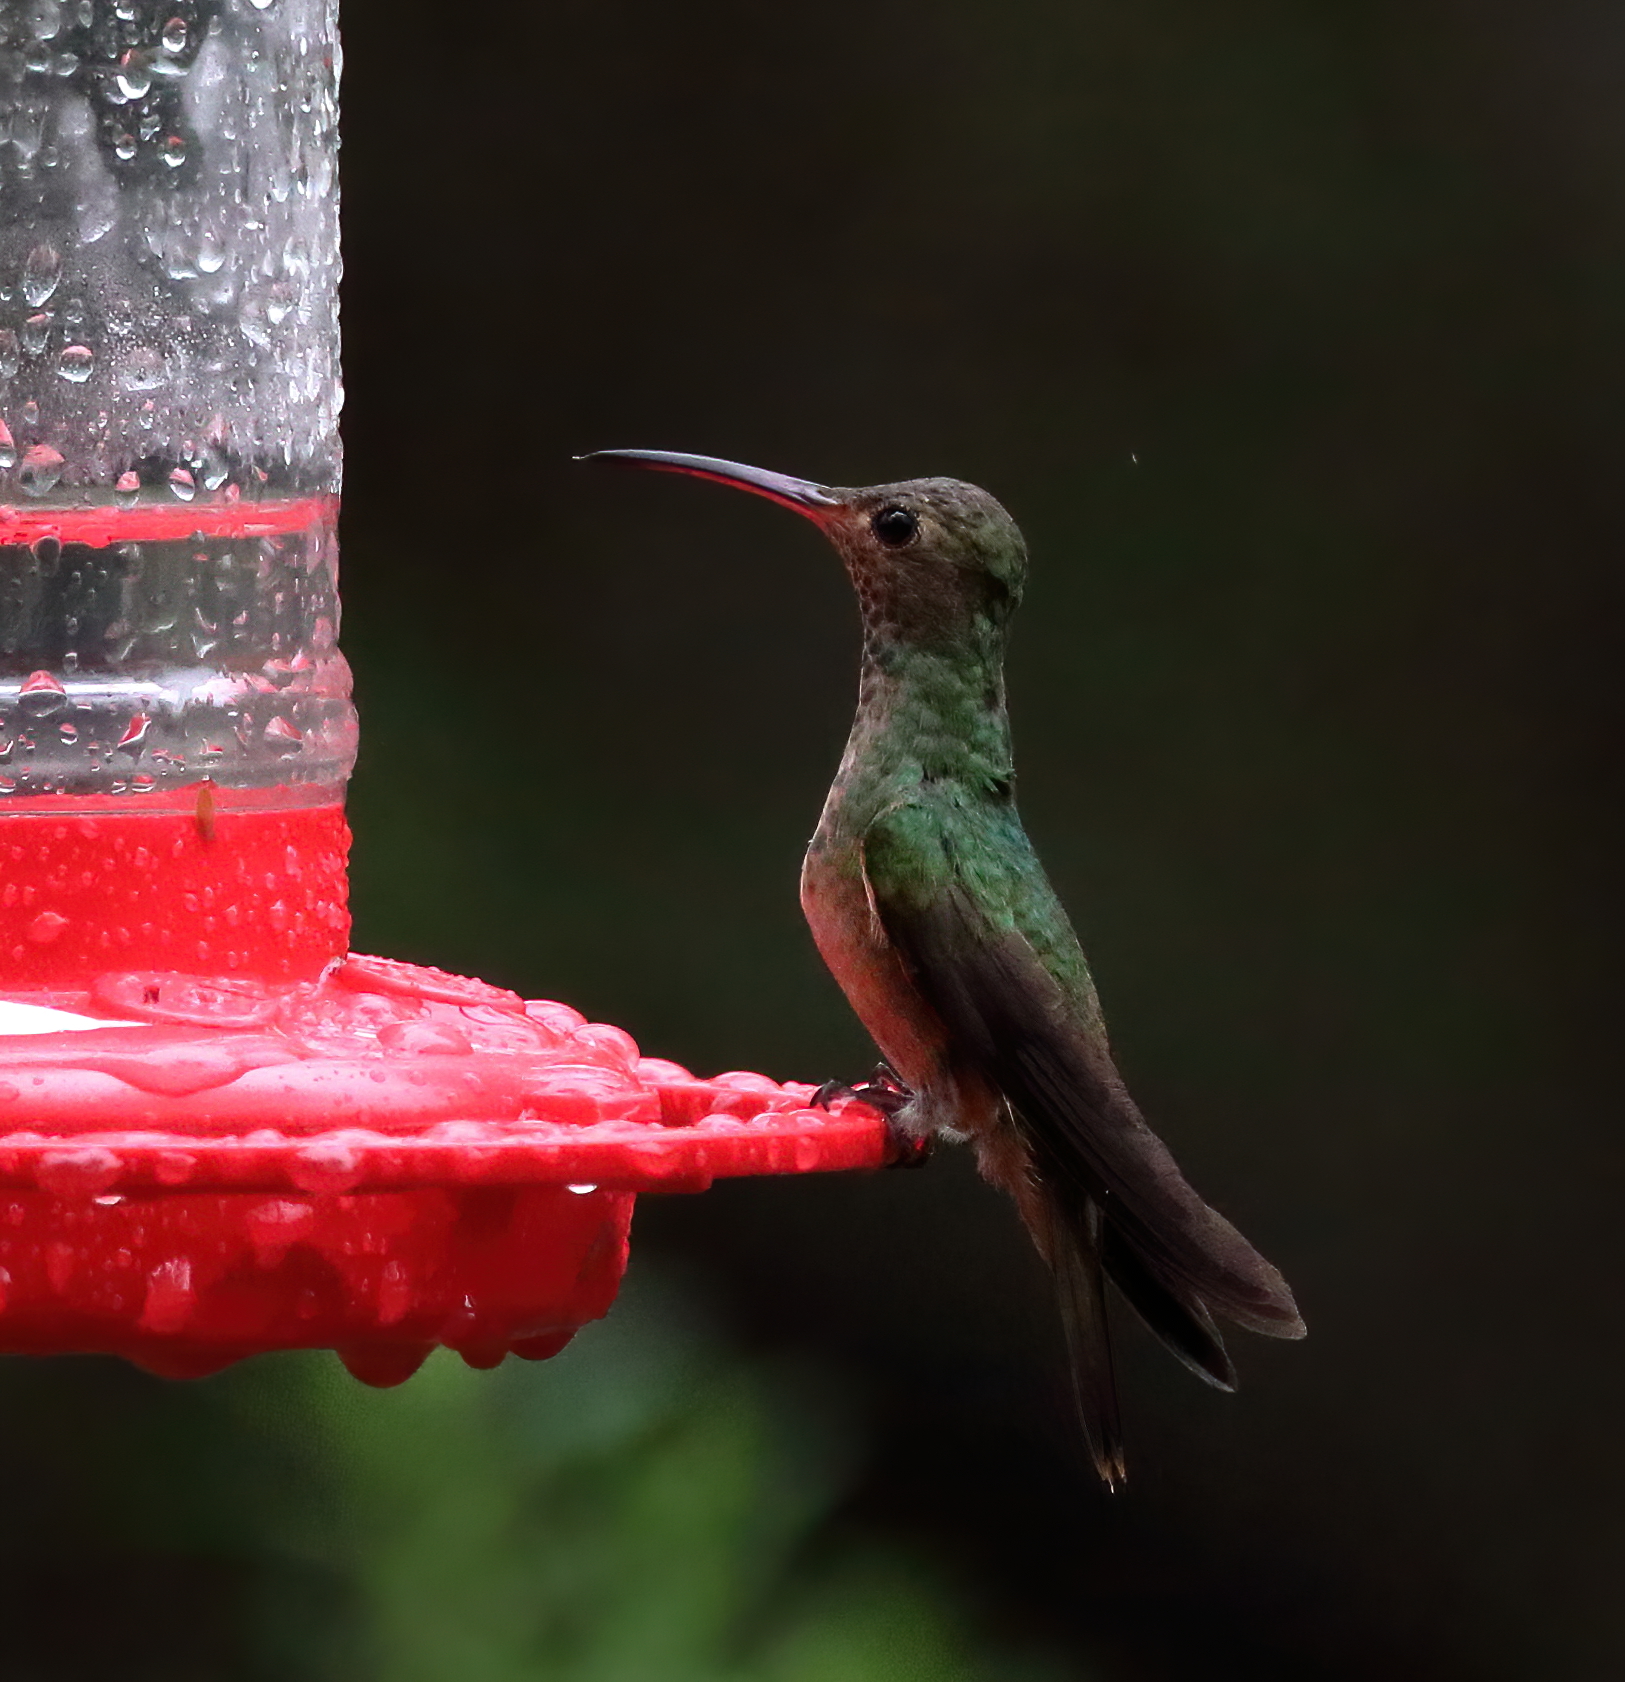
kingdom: Animalia
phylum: Chordata
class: Aves
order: Apodiformes
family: Trochilidae
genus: Amazilia
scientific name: Amazilia yucatanensis
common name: Buff-bellied hummingbird
